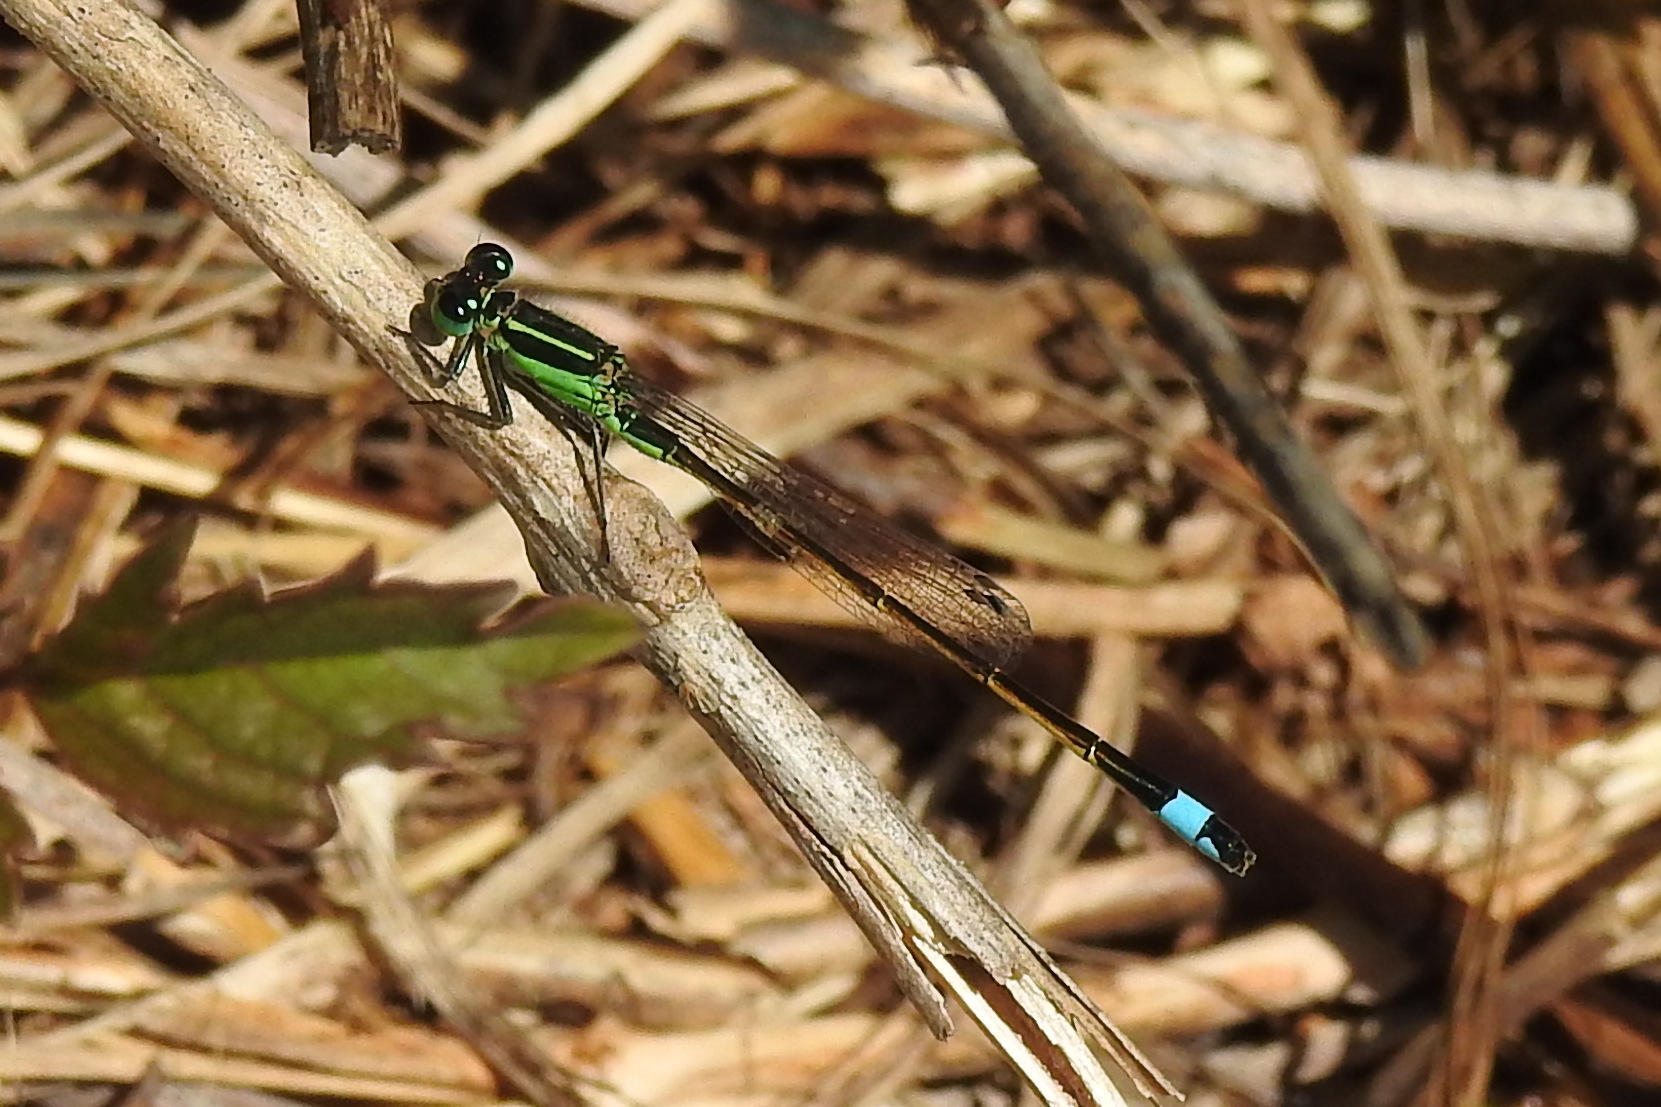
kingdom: Animalia
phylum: Arthropoda
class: Insecta
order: Odonata
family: Coenagrionidae
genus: Ischnura
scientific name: Ischnura ramburii
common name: Rambur's forktail
